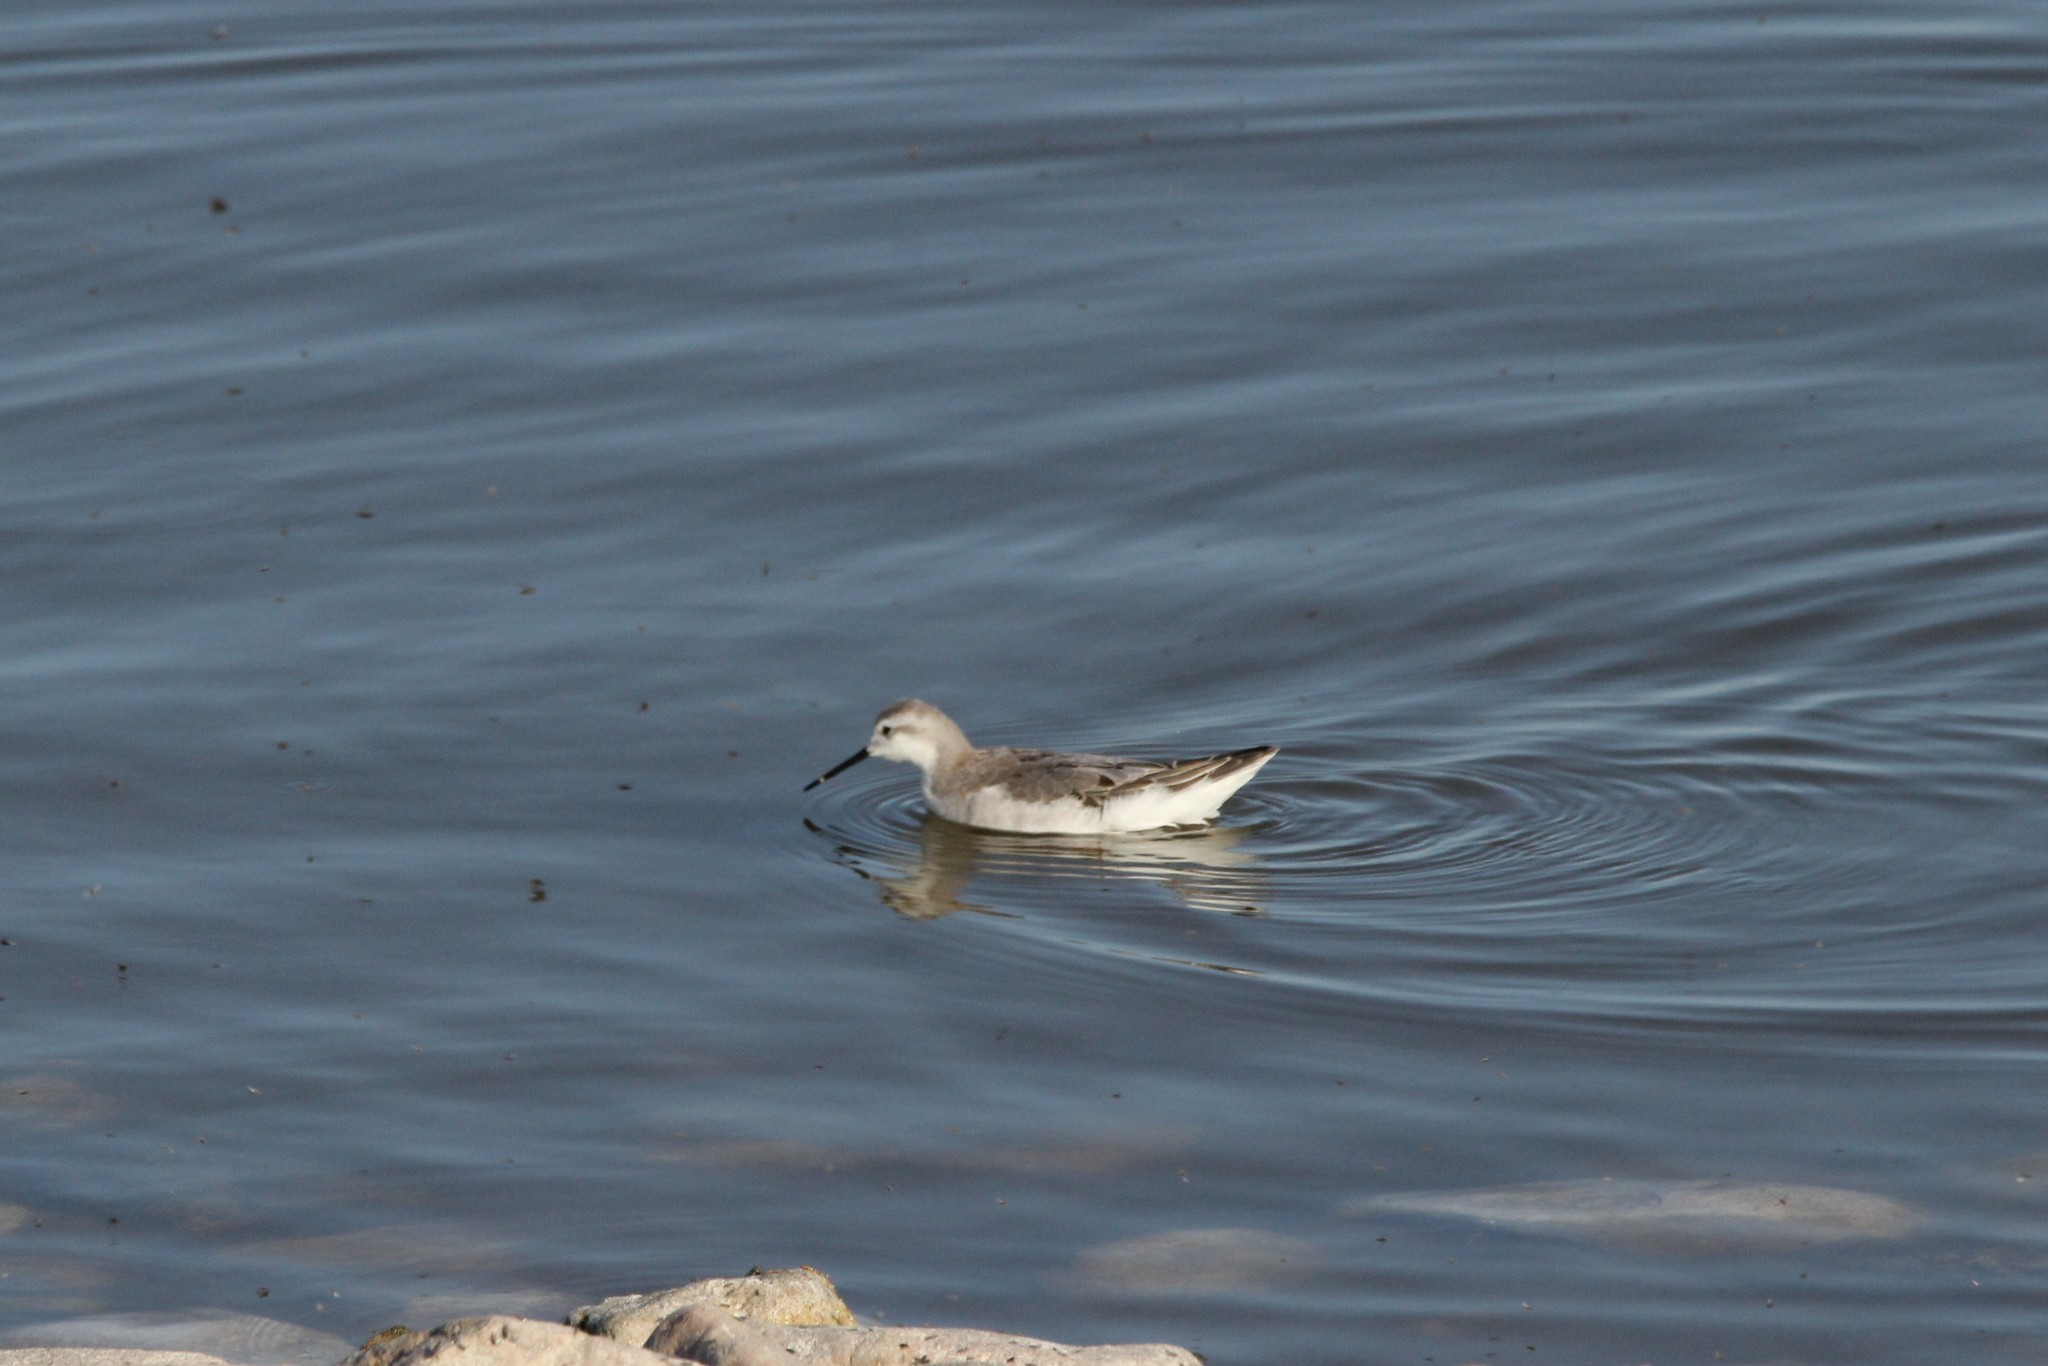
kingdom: Animalia
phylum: Chordata
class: Aves
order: Charadriiformes
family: Scolopacidae
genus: Phalaropus
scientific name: Phalaropus tricolor
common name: Wilson's phalarope
